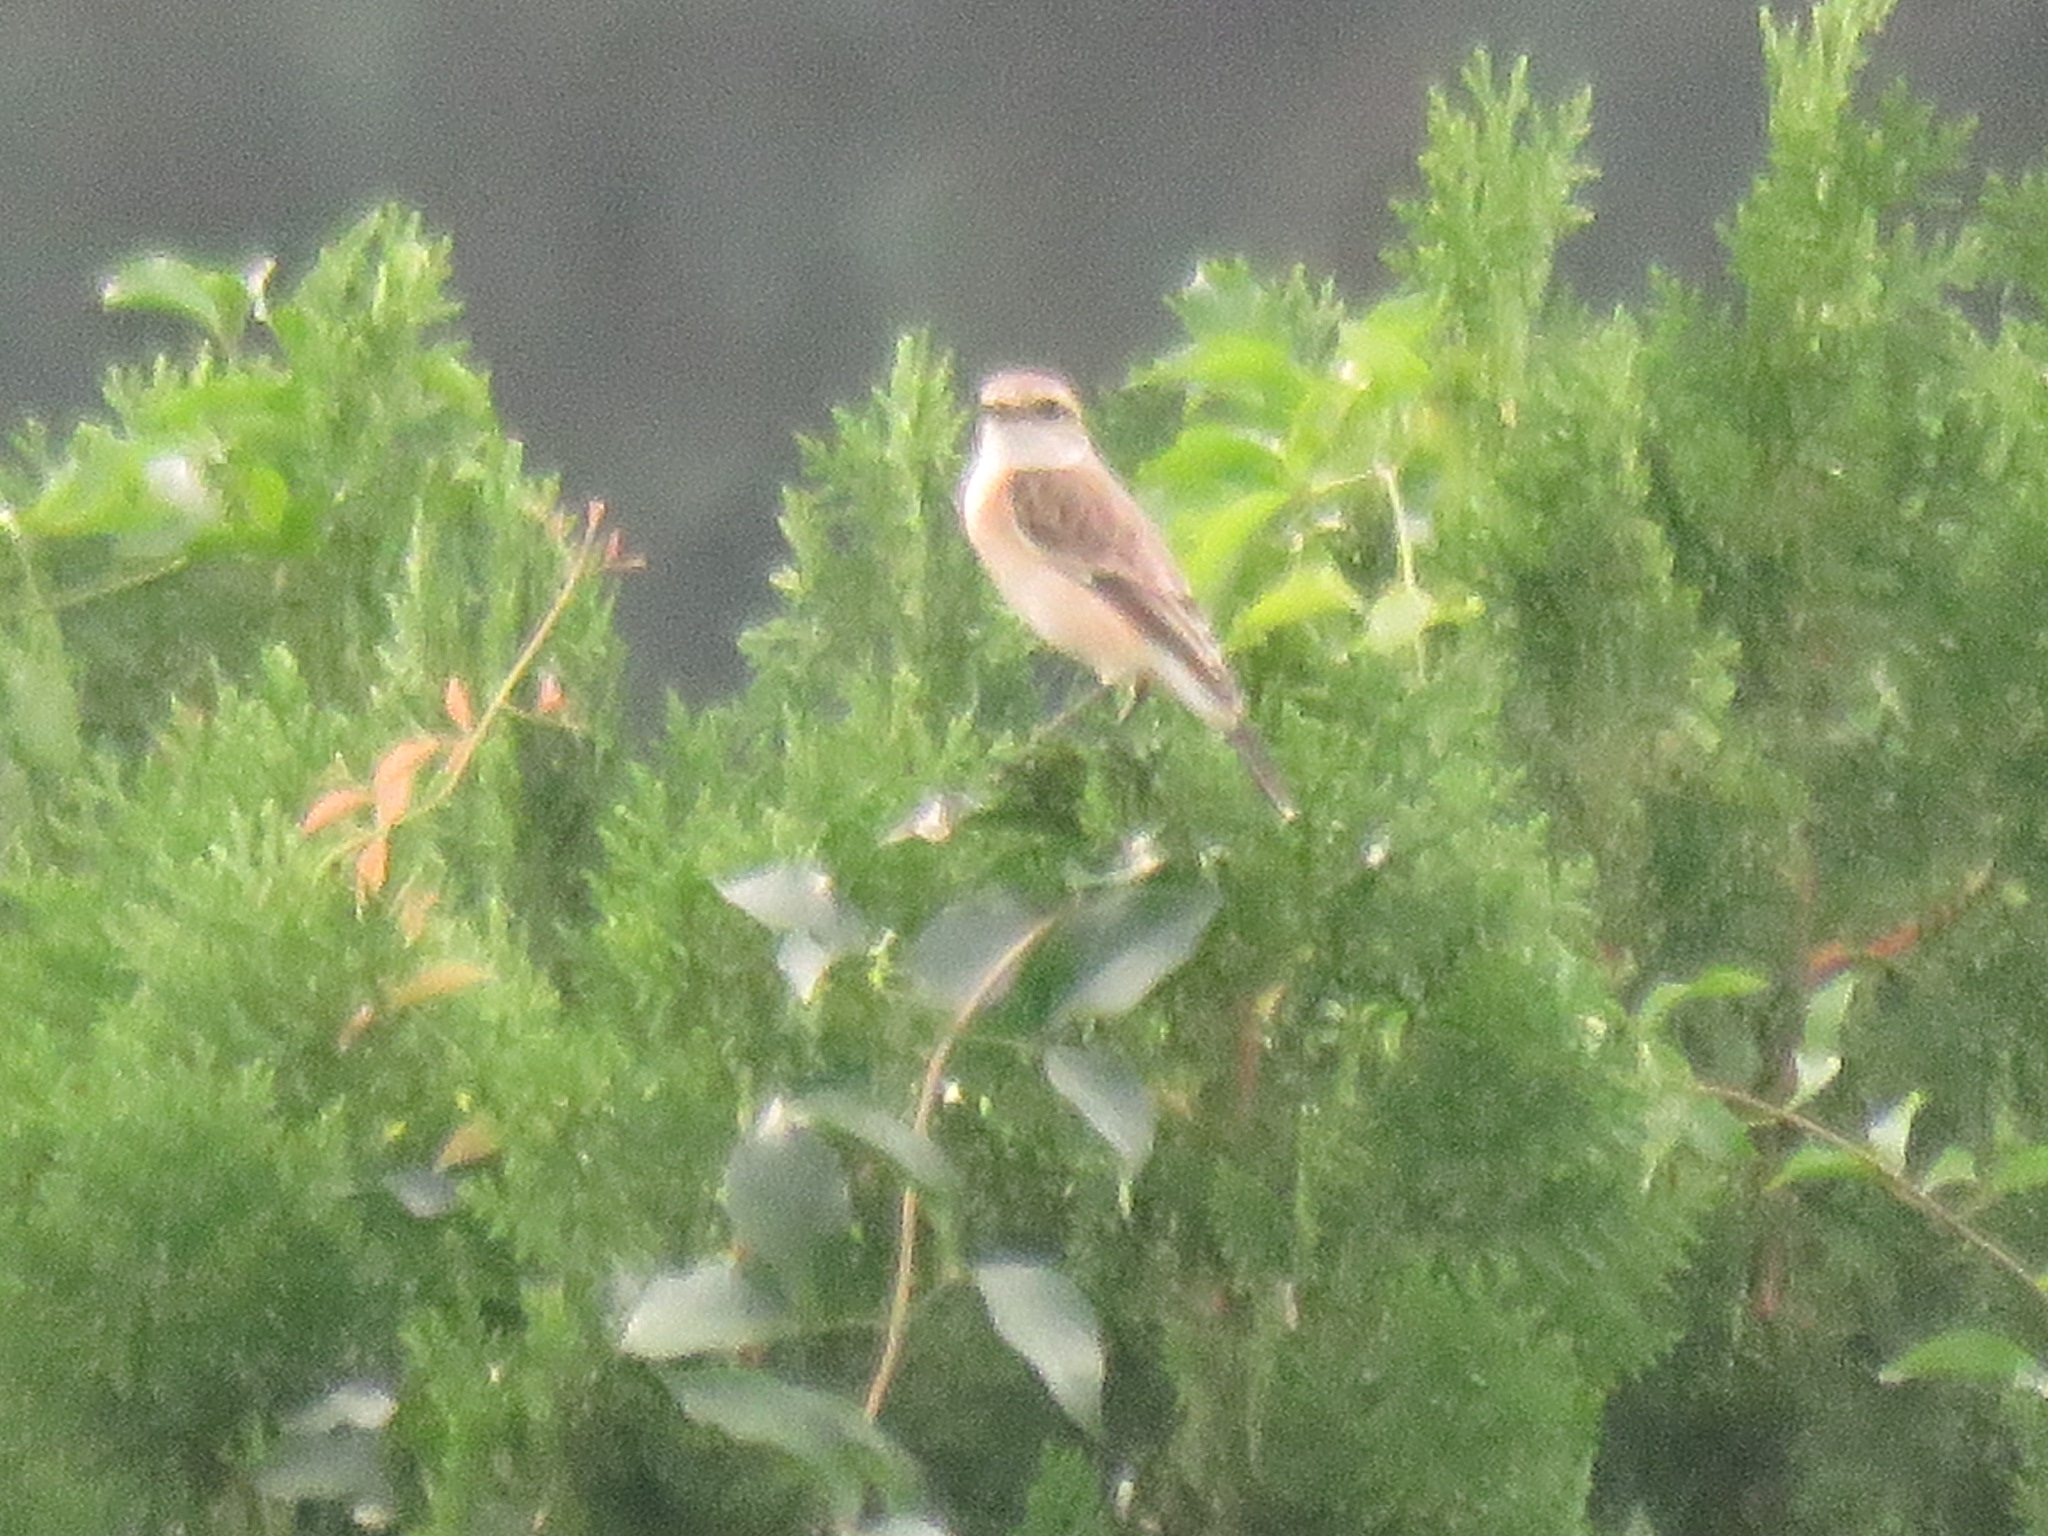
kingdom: Animalia
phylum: Chordata
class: Aves
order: Passeriformes
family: Muscicapidae
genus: Saxicola
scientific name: Saxicola maurus
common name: Siberian stonechat
